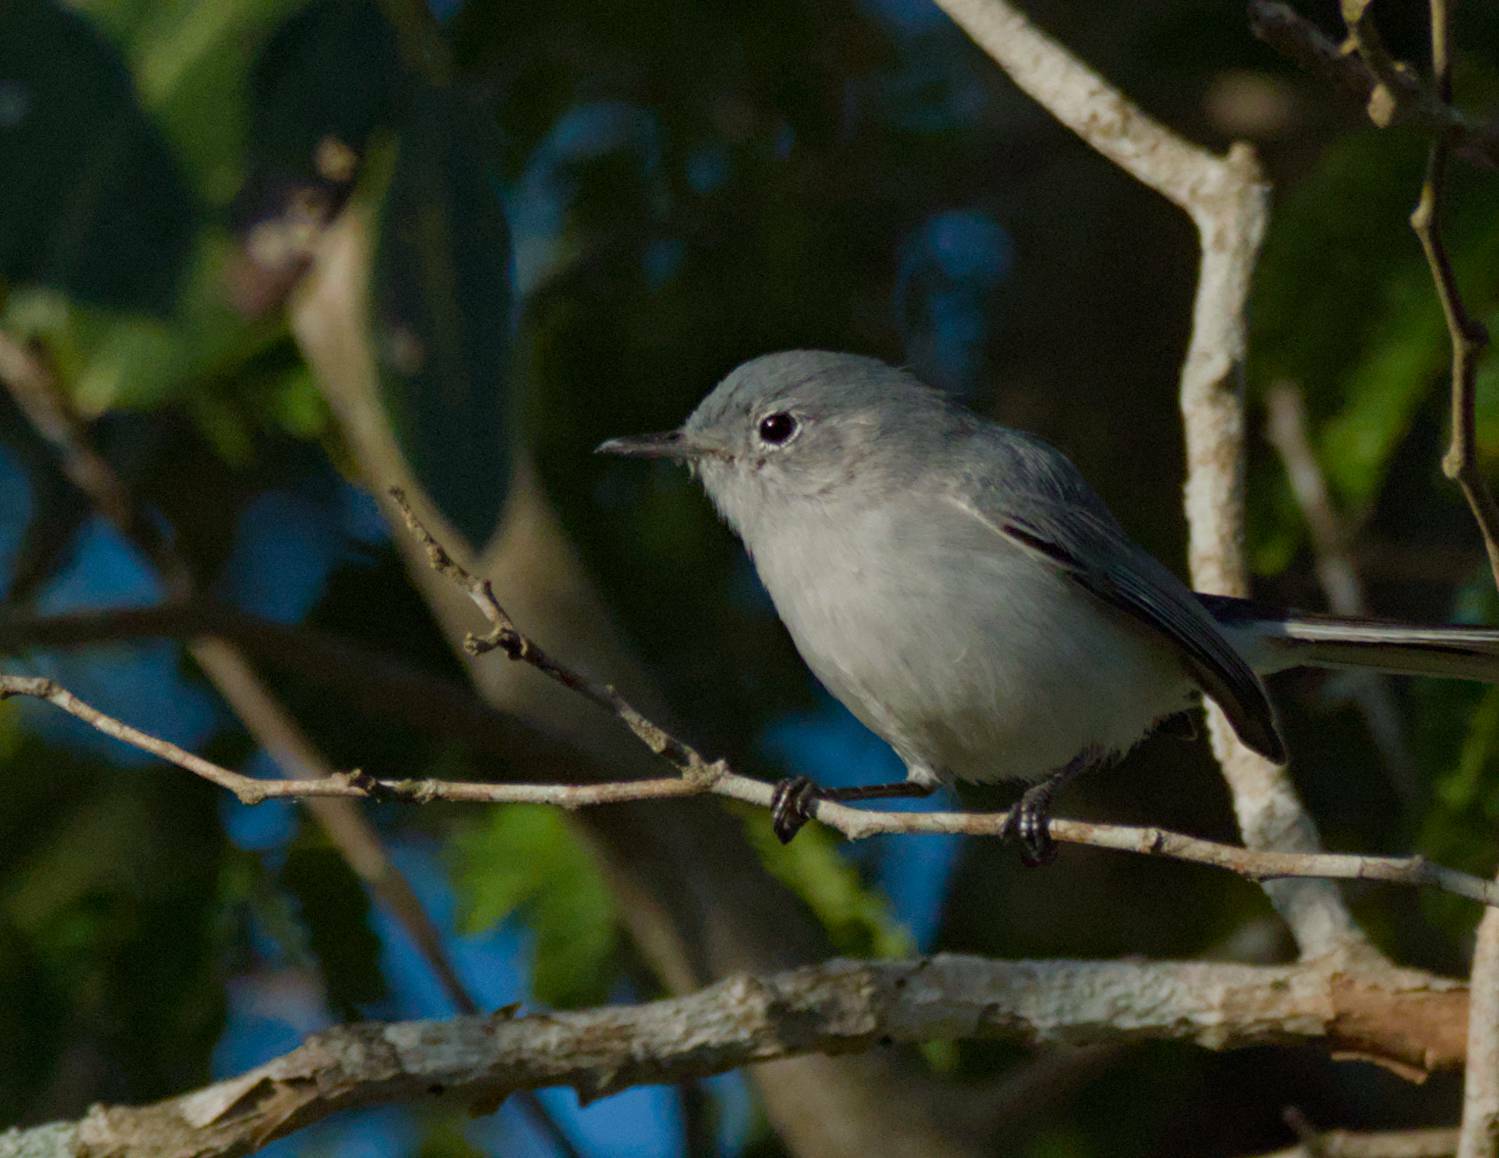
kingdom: Animalia
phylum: Chordata
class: Aves
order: Passeriformes
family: Polioptilidae
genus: Polioptila
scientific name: Polioptila caerulea
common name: Blue-gray gnatcatcher
